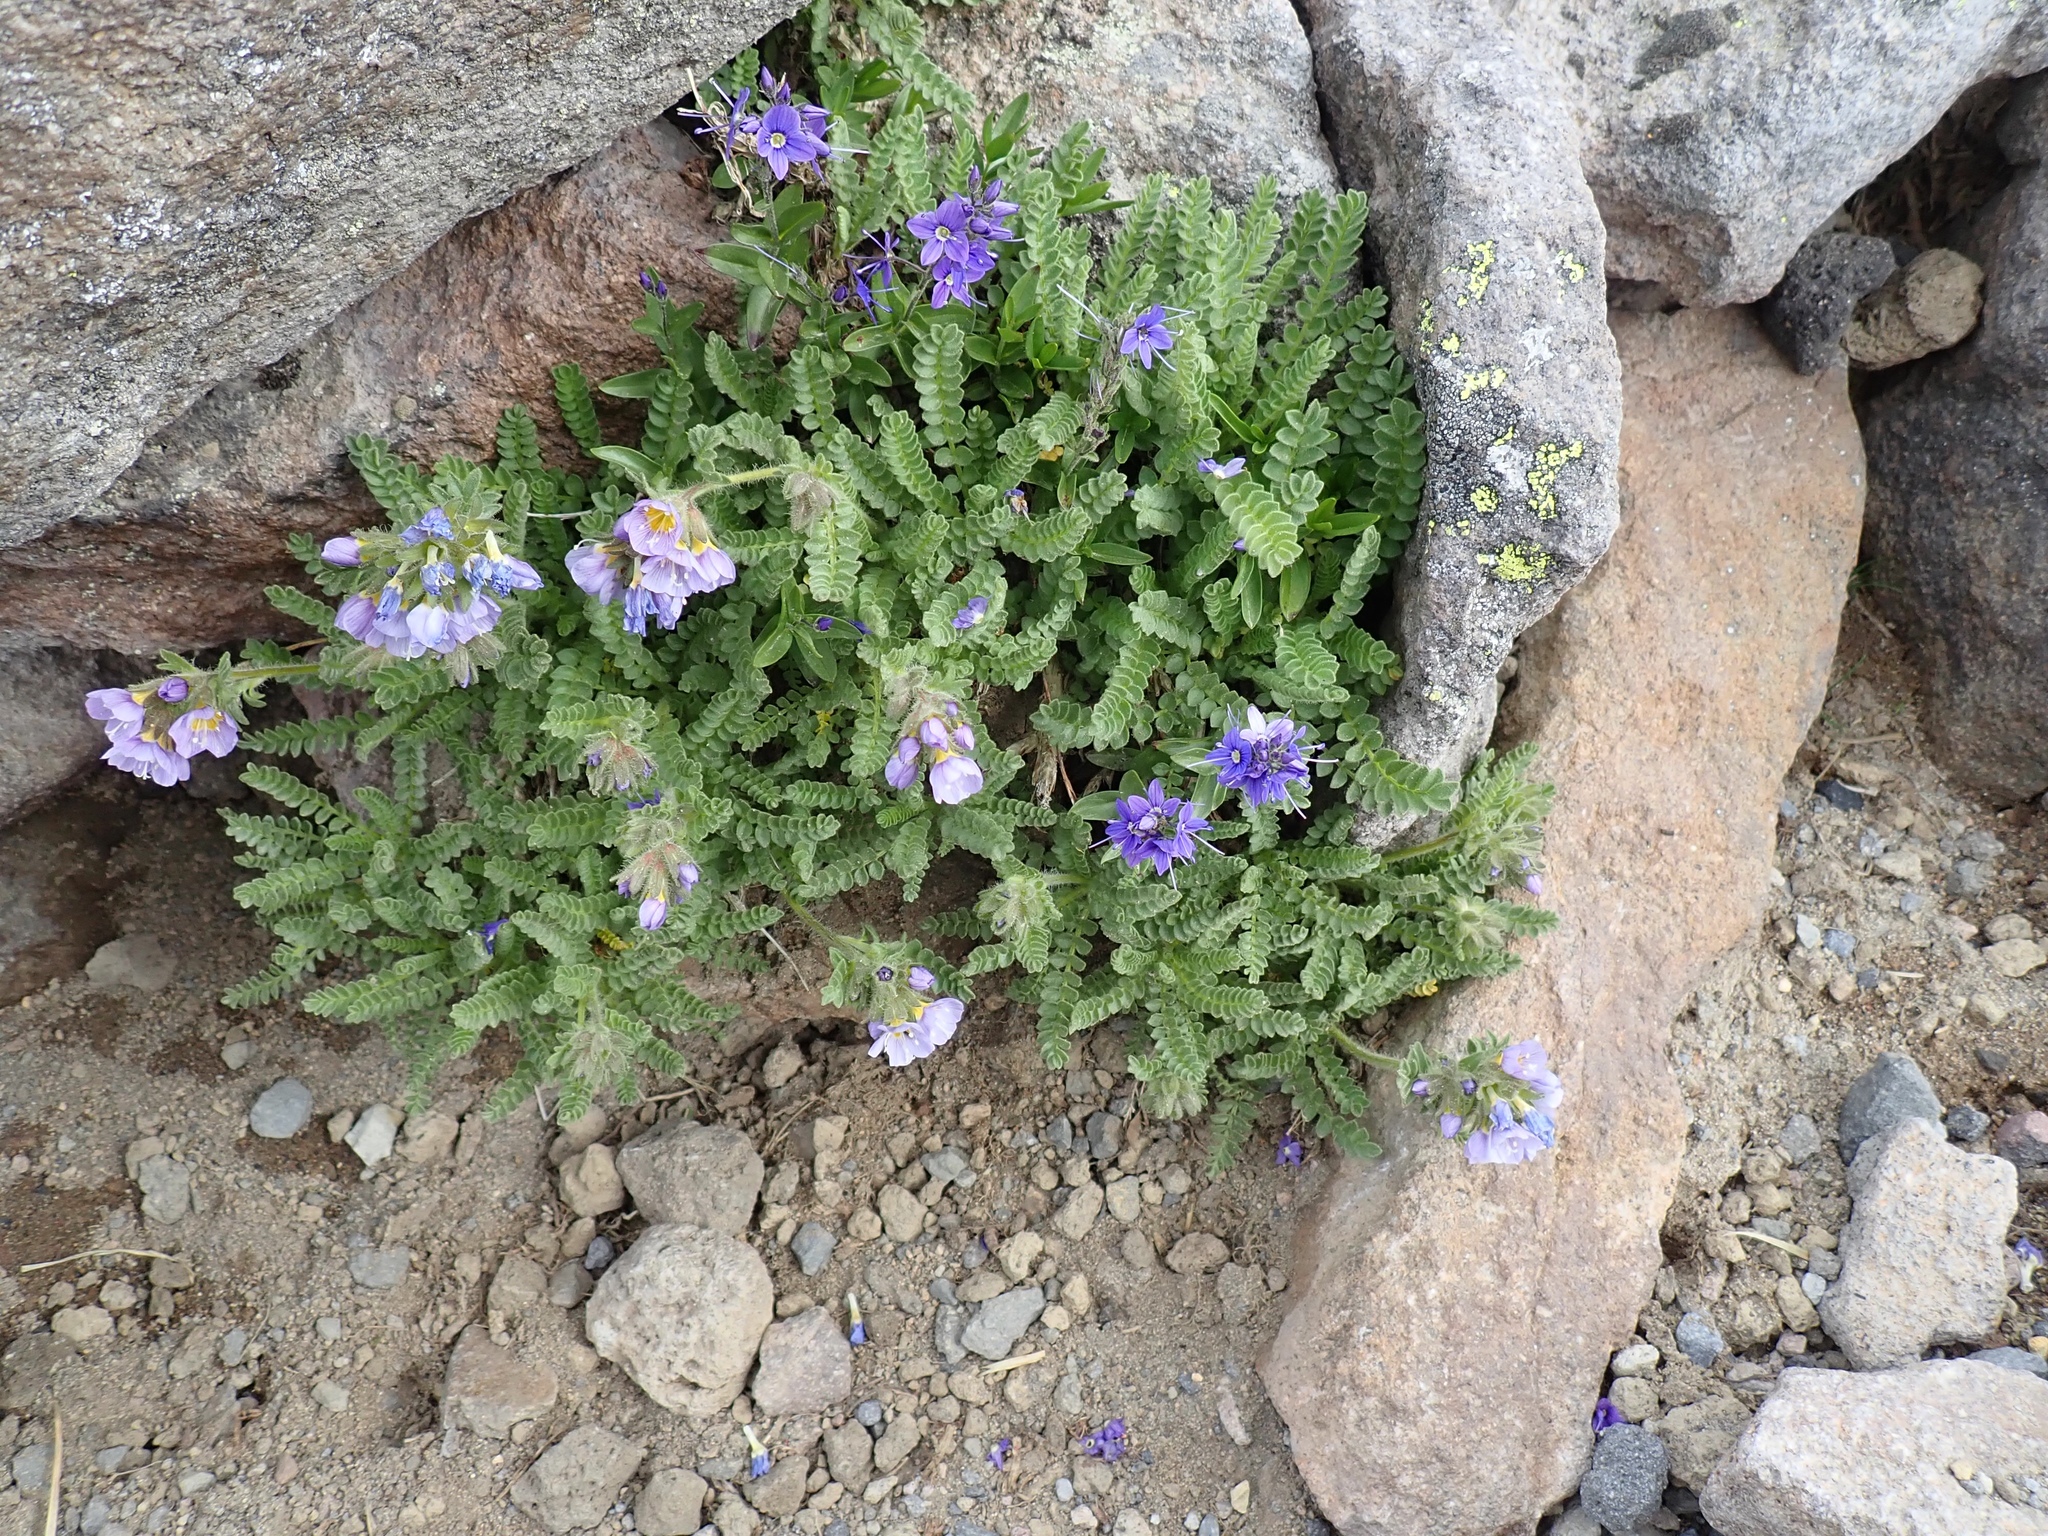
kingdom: Plantae
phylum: Tracheophyta
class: Magnoliopsida
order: Ericales
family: Polemoniaceae
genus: Polemonium
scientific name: Polemonium elegans
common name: Elegant jacob's-ladder
